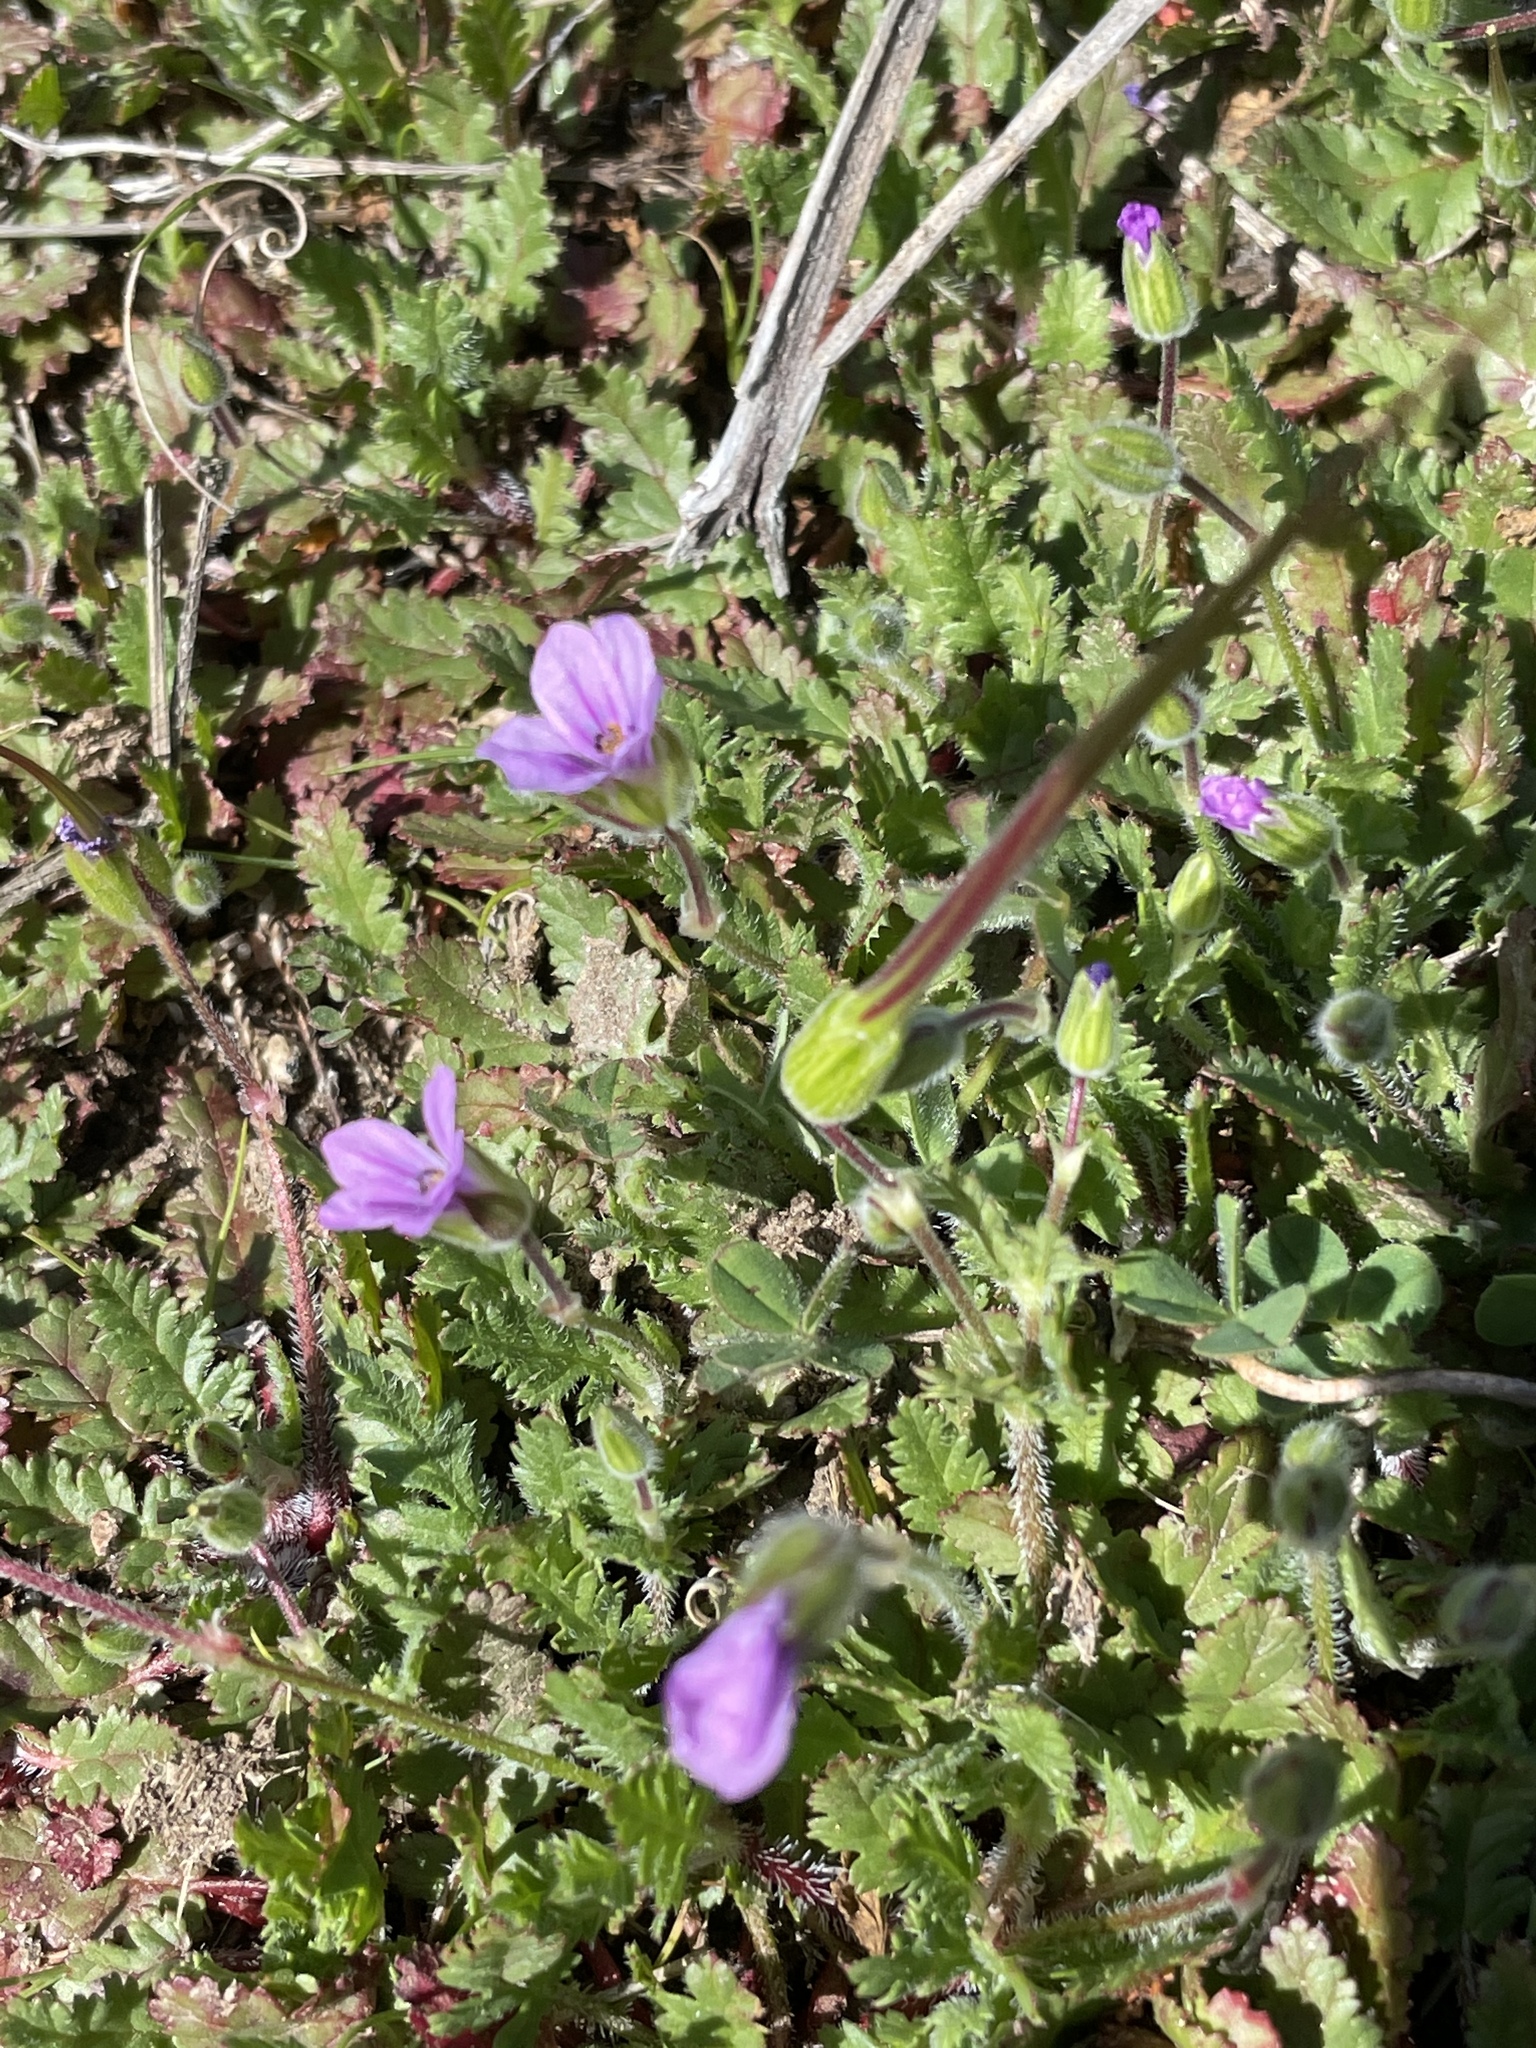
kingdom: Plantae
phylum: Tracheophyta
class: Magnoliopsida
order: Geraniales
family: Geraniaceae
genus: Erodium
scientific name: Erodium botrys
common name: Mediterranean stork's-bill
